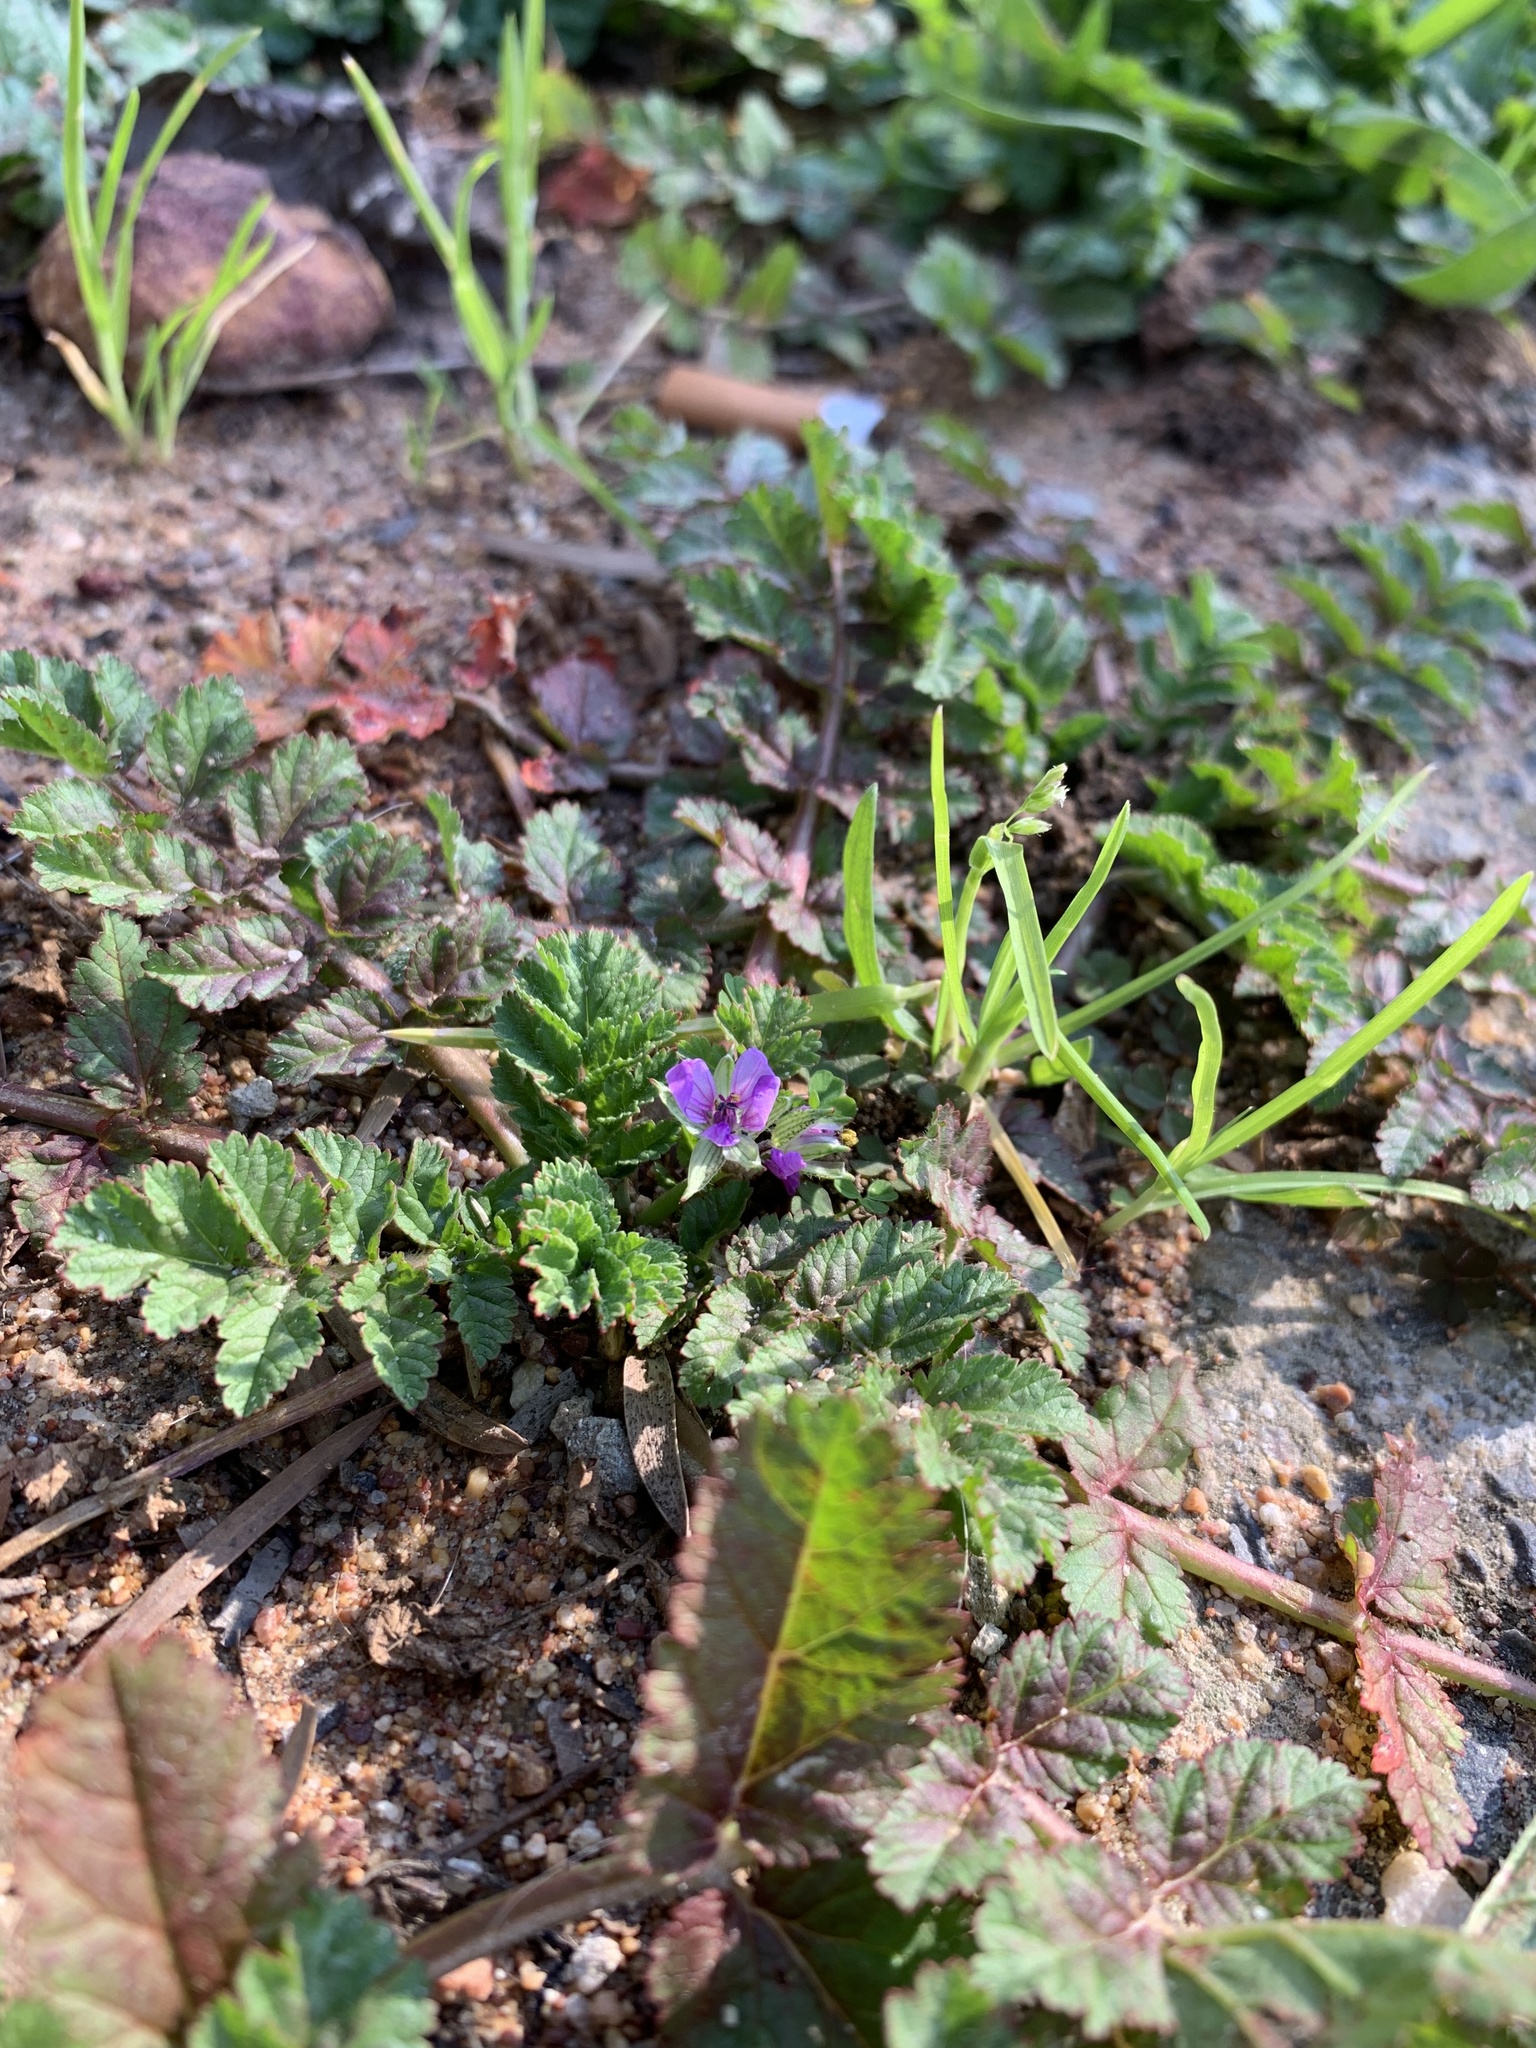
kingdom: Plantae
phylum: Tracheophyta
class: Magnoliopsida
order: Geraniales
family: Geraniaceae
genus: Erodium
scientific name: Erodium moschatum
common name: Musk stork's-bill
